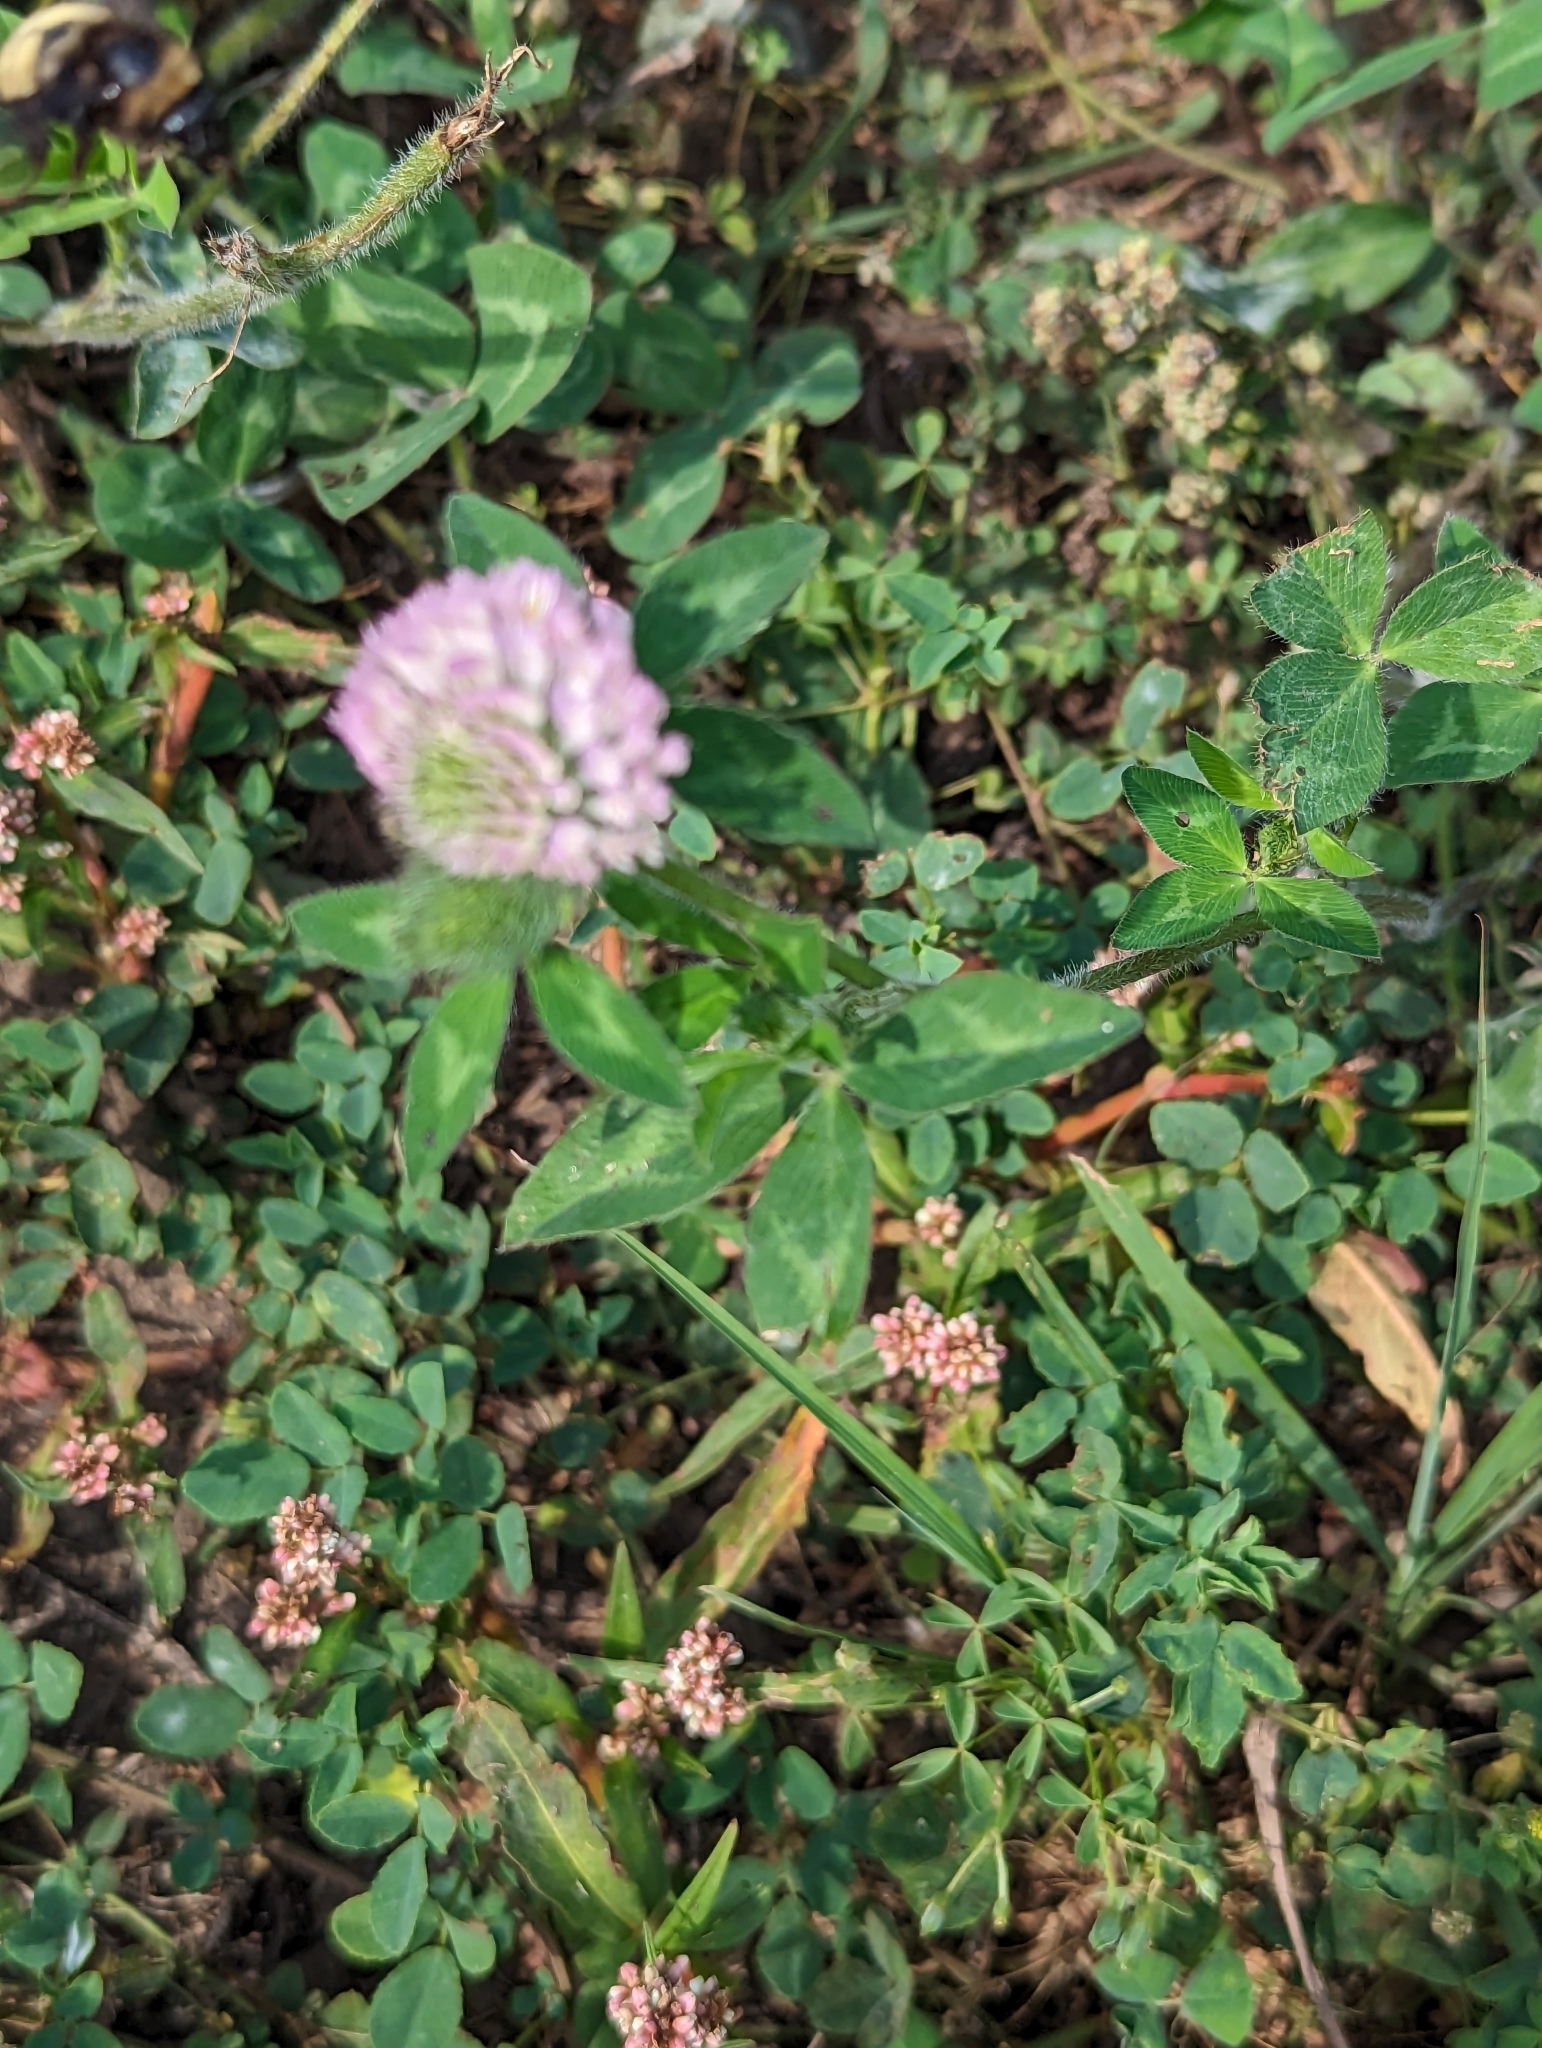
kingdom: Plantae
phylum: Tracheophyta
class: Magnoliopsida
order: Fabales
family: Fabaceae
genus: Trifolium
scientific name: Trifolium pratense
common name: Red clover
